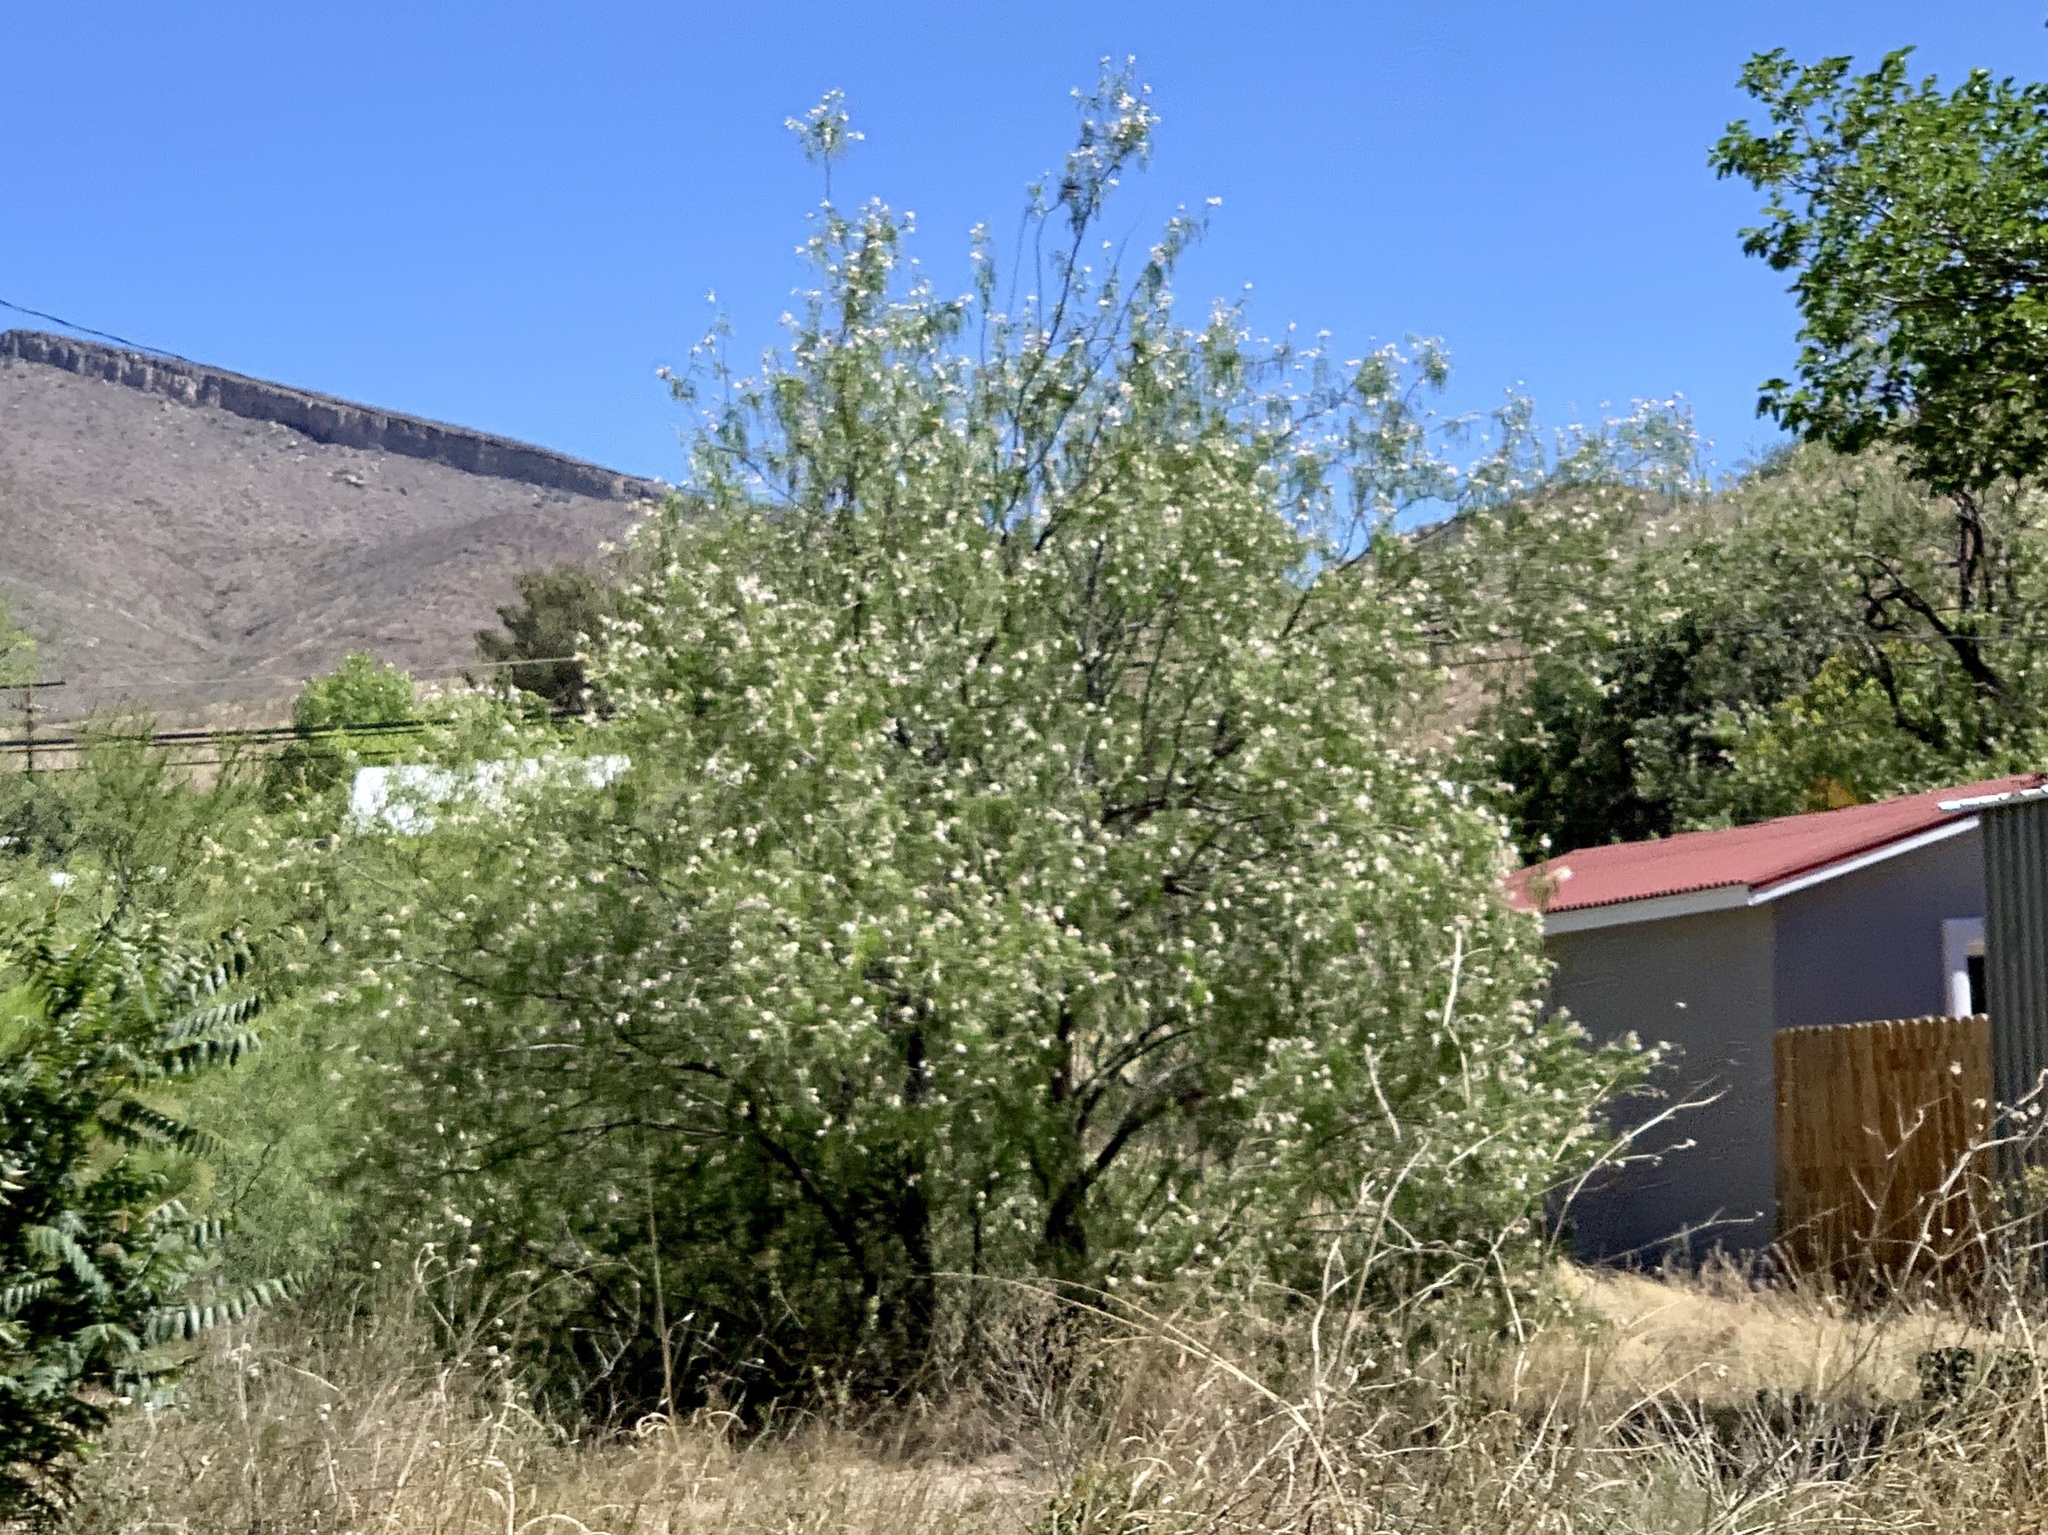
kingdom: Plantae
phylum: Tracheophyta
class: Magnoliopsida
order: Lamiales
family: Bignoniaceae
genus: Chilopsis
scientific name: Chilopsis linearis
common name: Desert-willow
